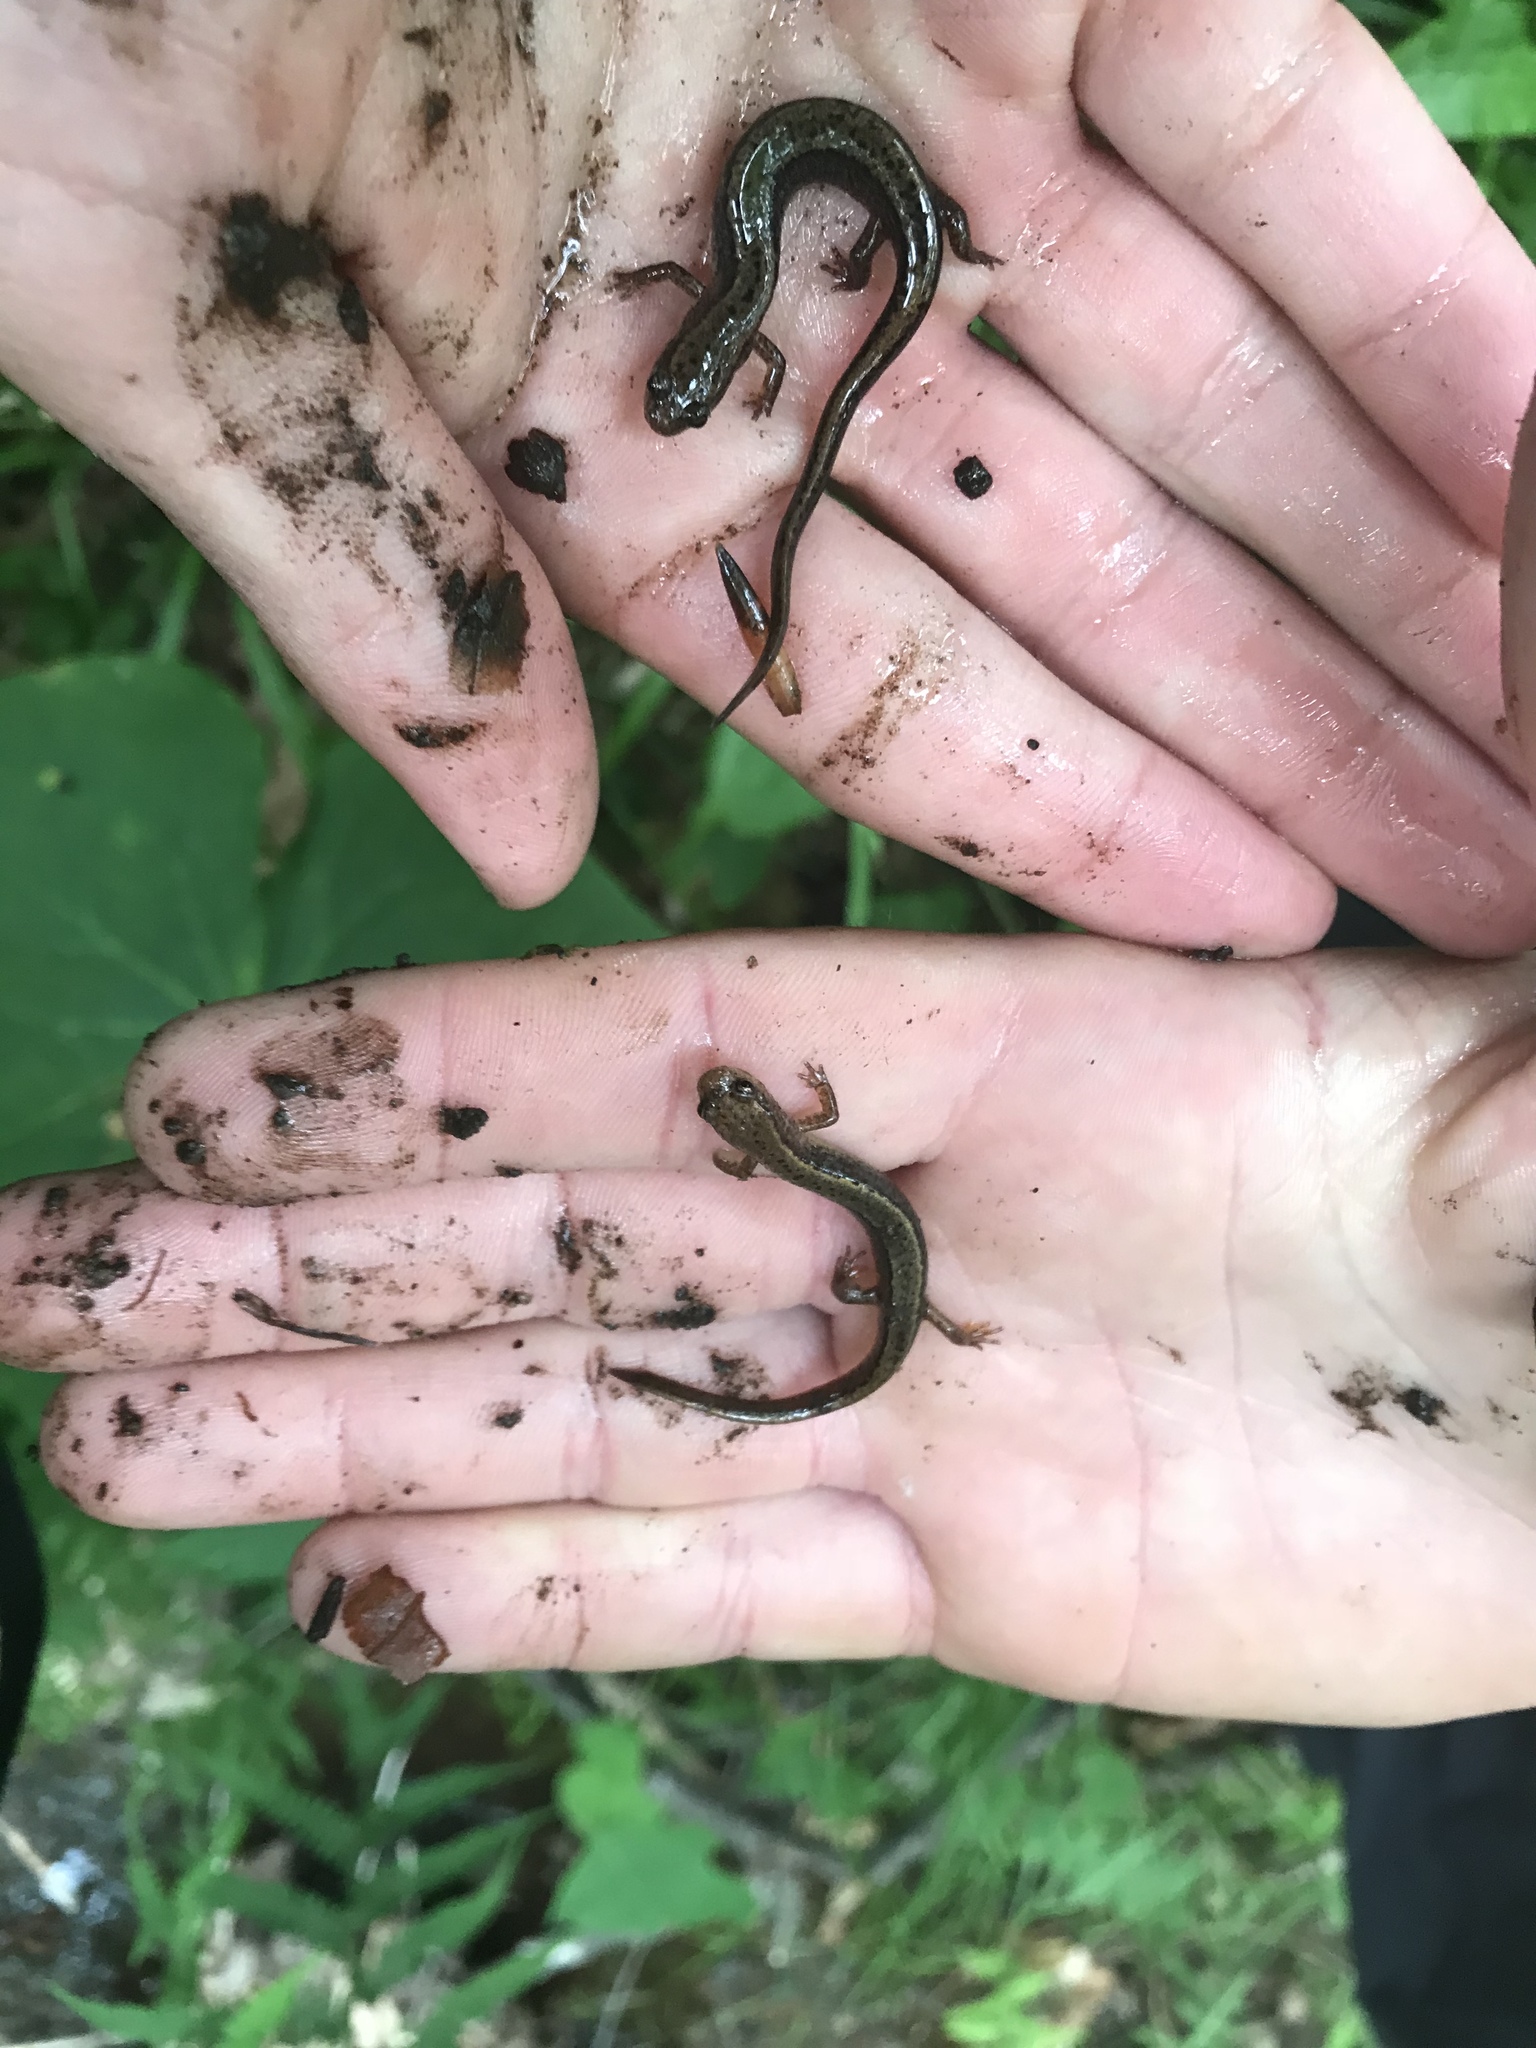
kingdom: Animalia
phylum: Chordata
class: Amphibia
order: Caudata
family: Plethodontidae
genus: Eurycea
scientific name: Eurycea bislineata
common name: Northern two-lined salamander
